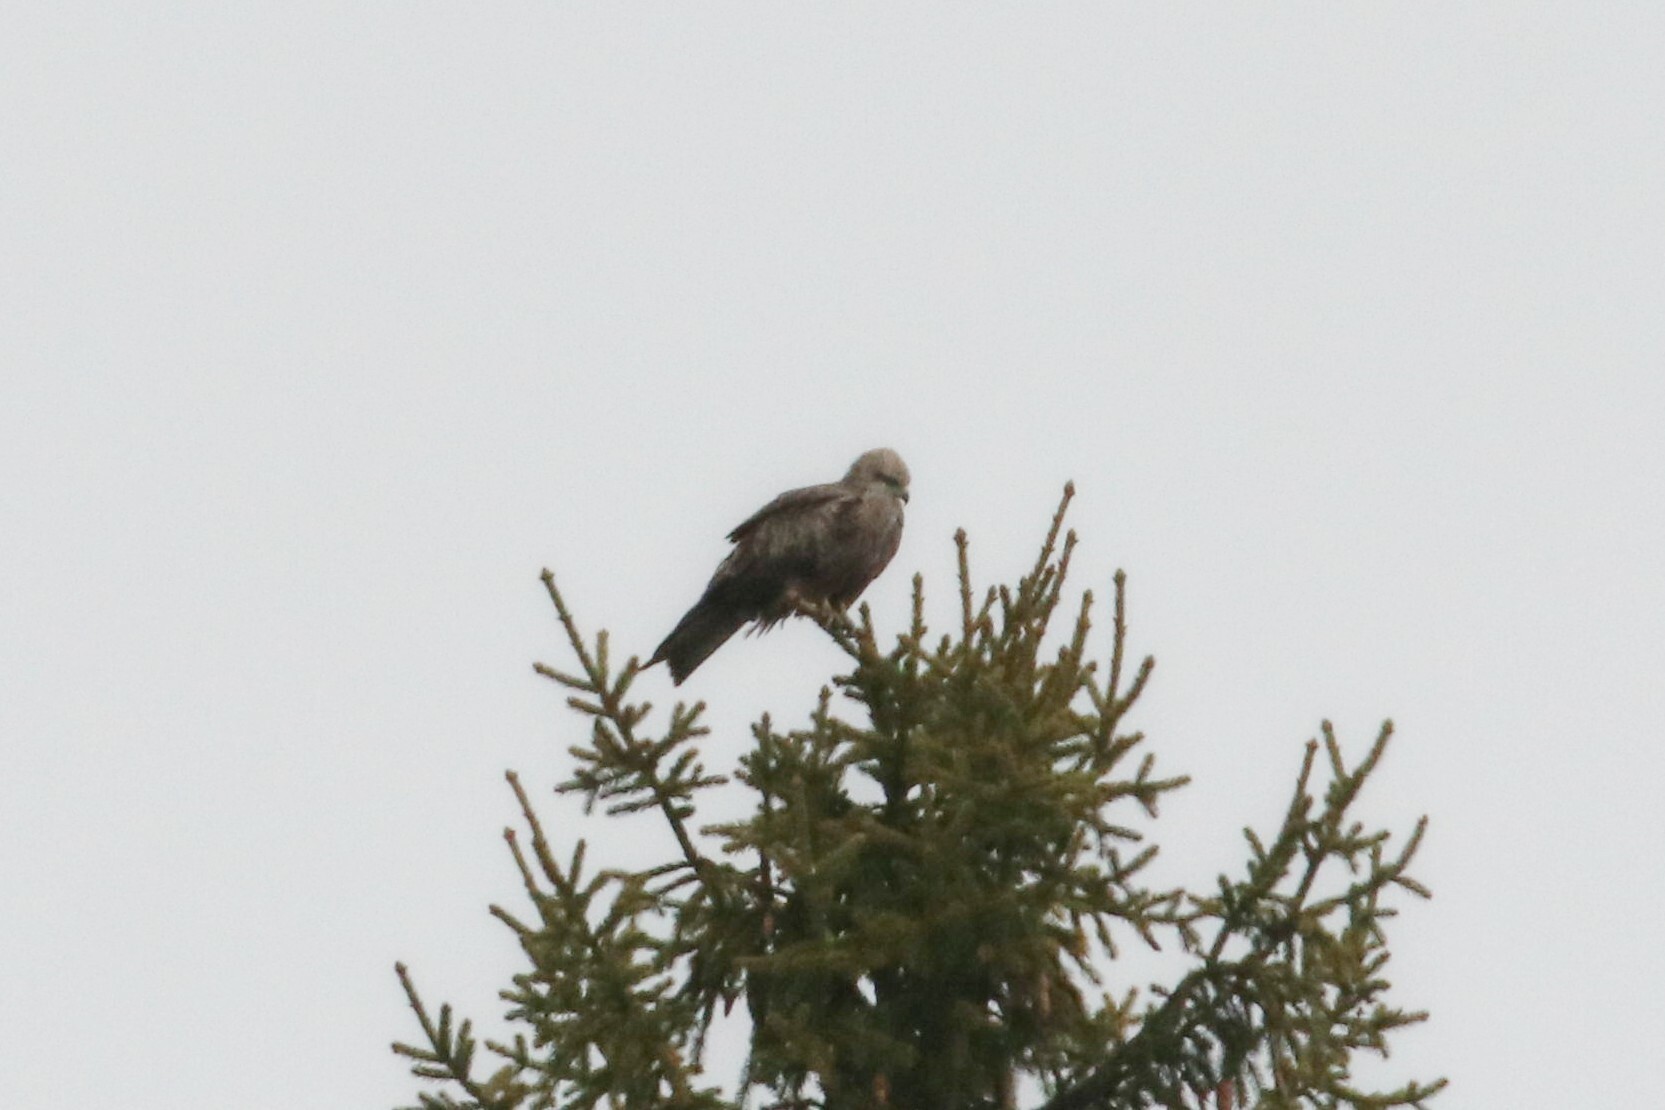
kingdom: Animalia
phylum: Chordata
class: Aves
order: Accipitriformes
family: Accipitridae
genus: Milvus
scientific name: Milvus migrans
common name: Black kite
